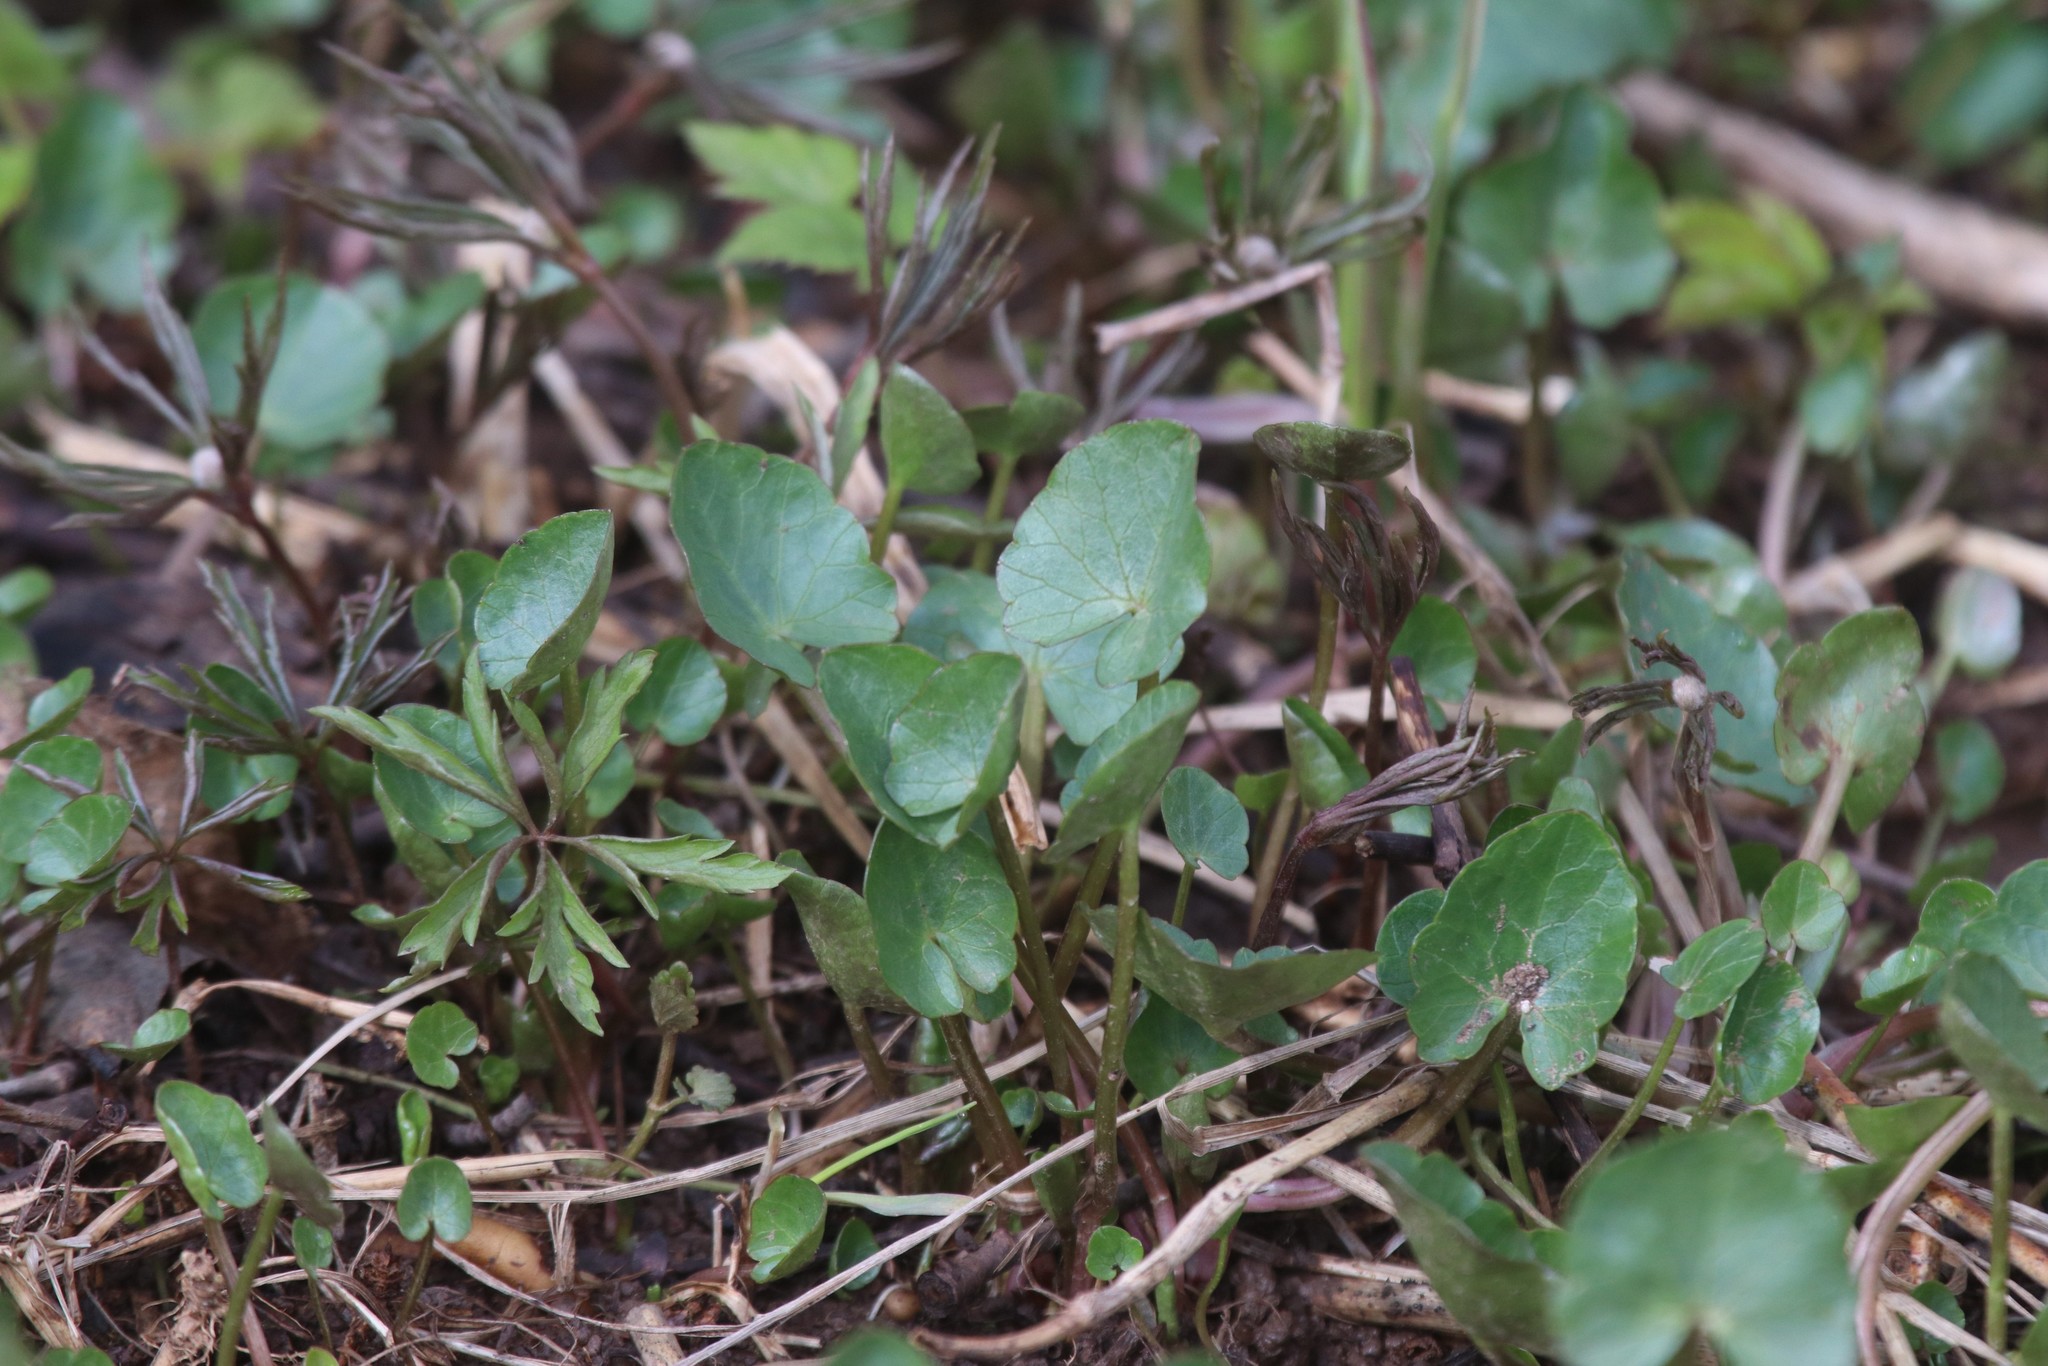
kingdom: Plantae
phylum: Tracheophyta
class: Magnoliopsida
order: Ranunculales
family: Ranunculaceae
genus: Ficaria
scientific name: Ficaria verna
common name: Lesser celandine
